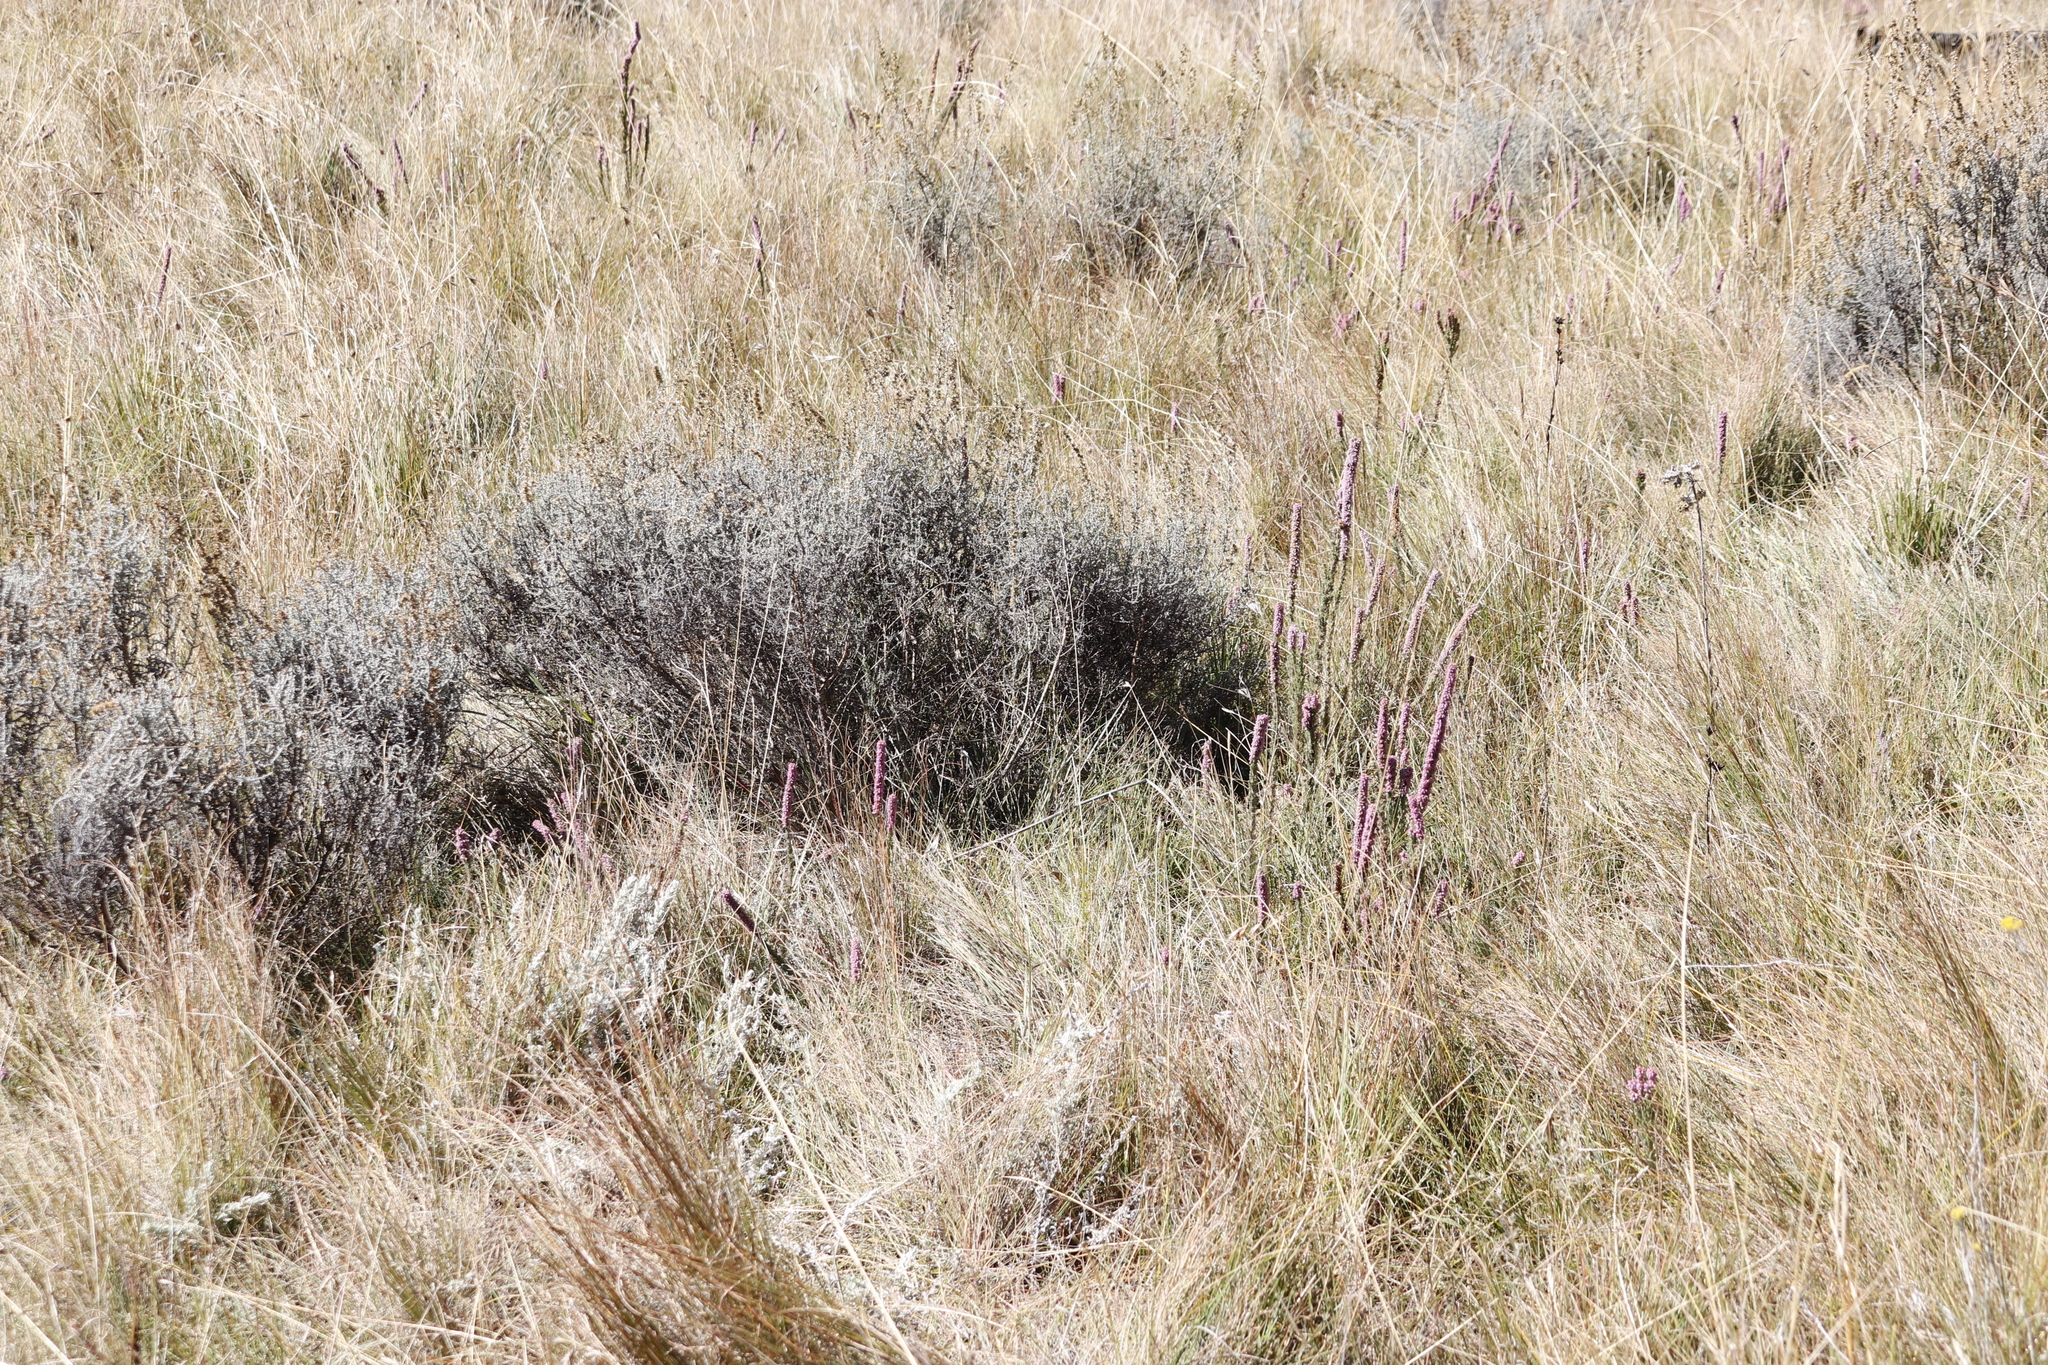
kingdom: Plantae
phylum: Tracheophyta
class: Magnoliopsida
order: Asterales
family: Asteraceae
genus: Seriphium
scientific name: Seriphium
